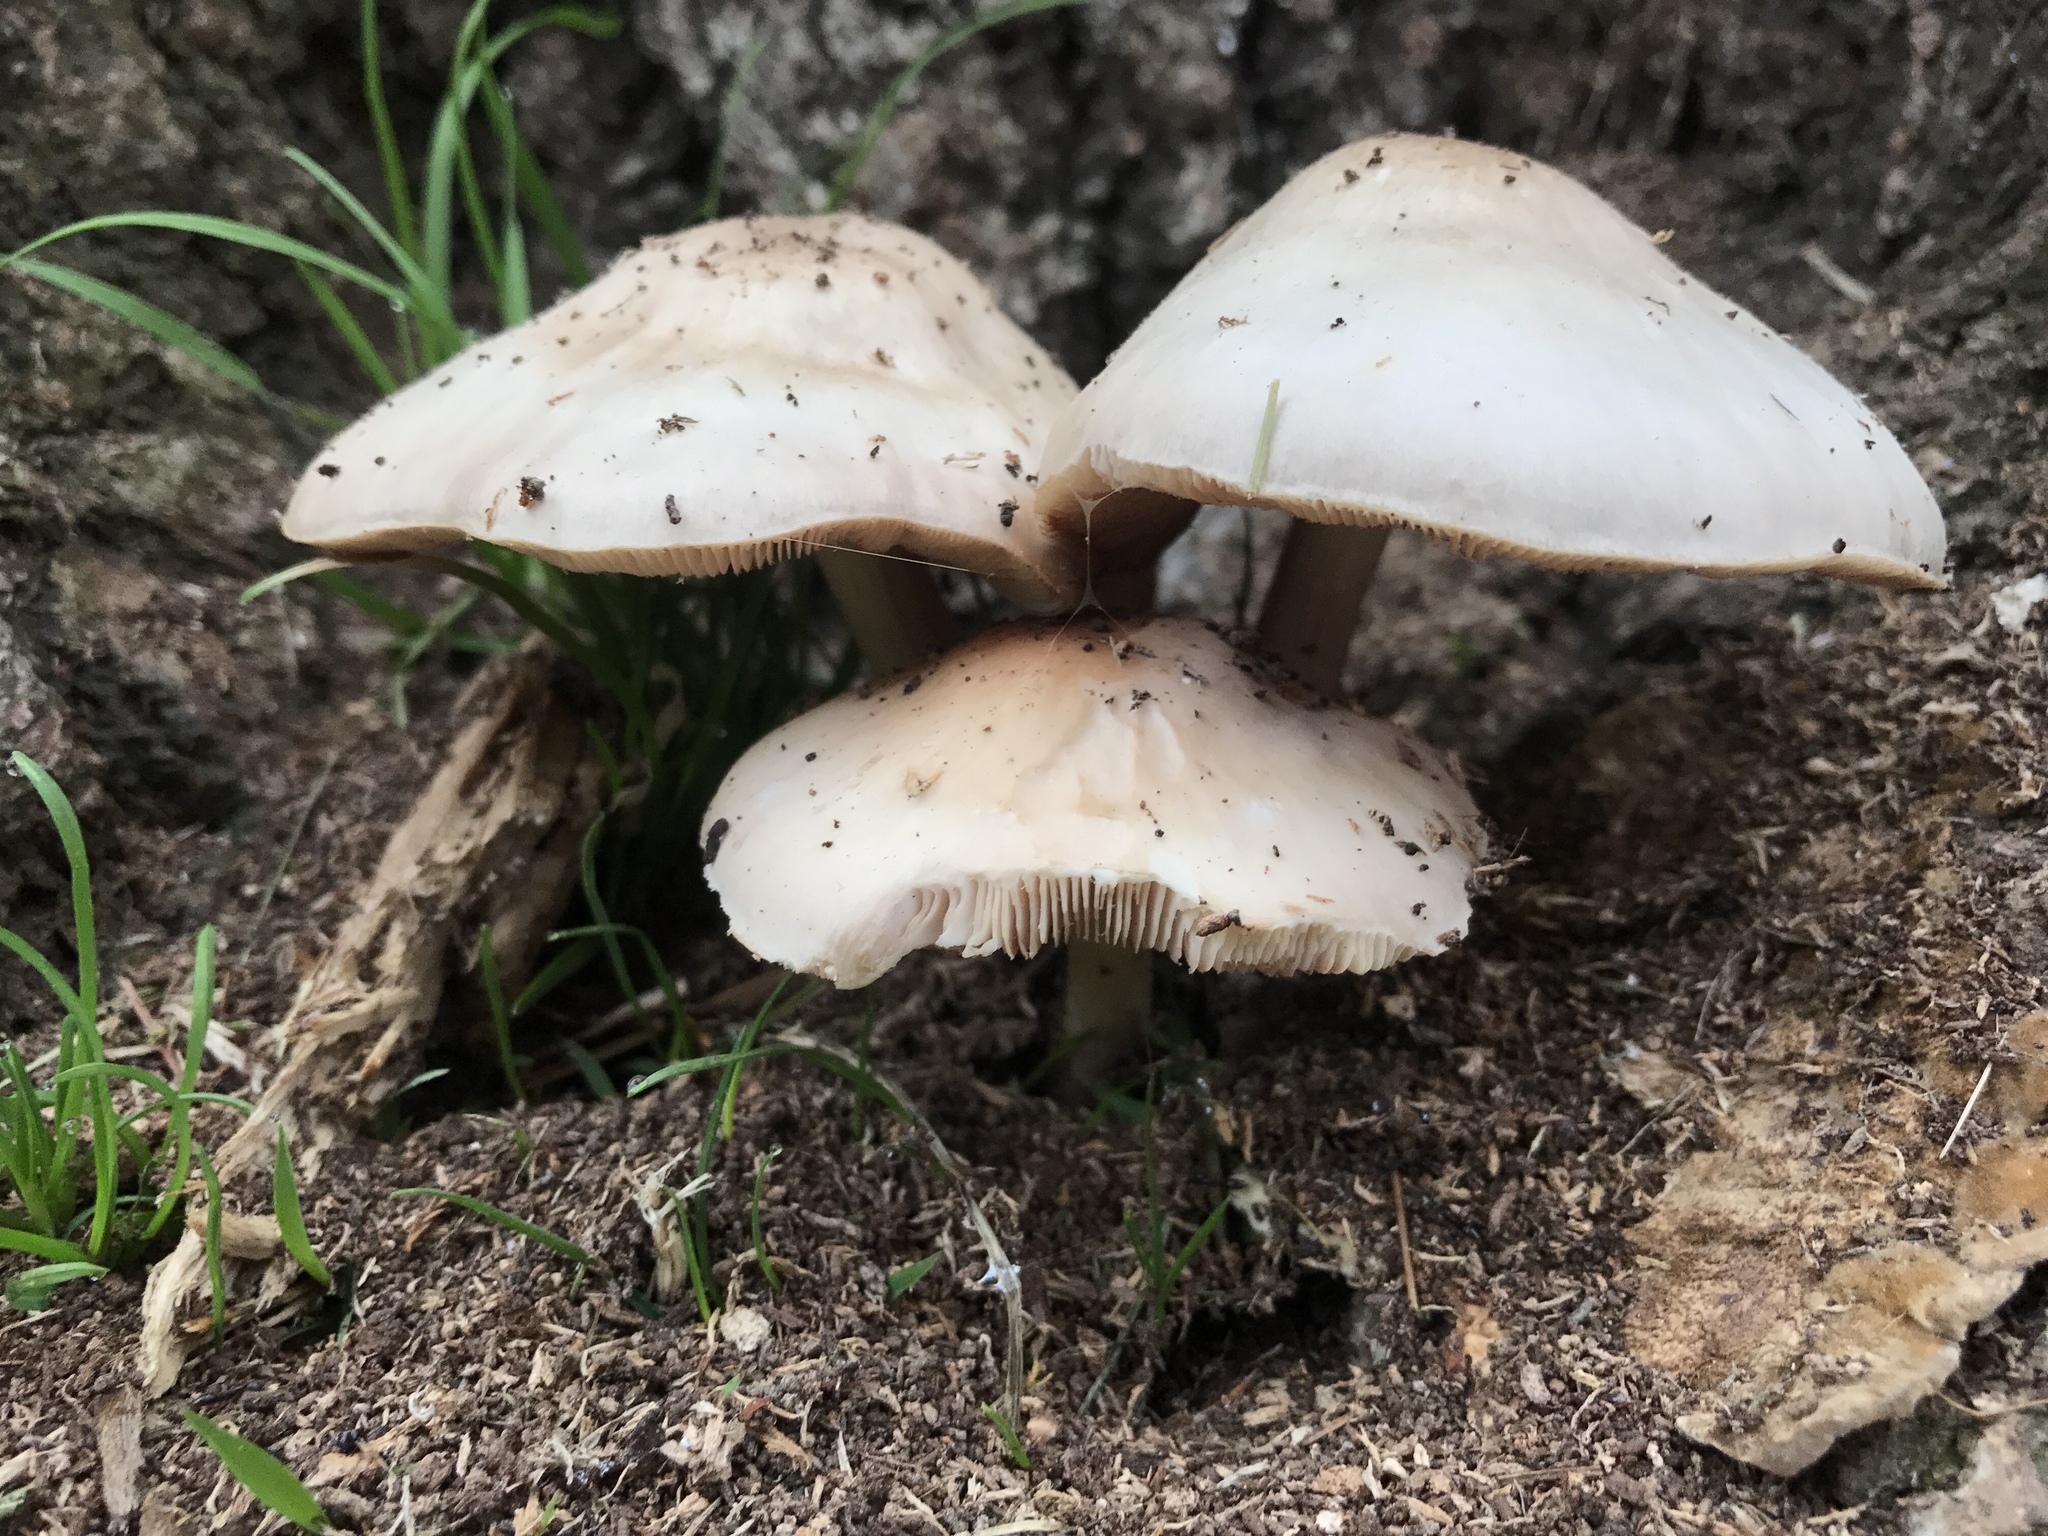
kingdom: Fungi
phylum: Basidiomycota
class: Agaricomycetes
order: Agaricales
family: Pluteaceae
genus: Pluteus
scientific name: Pluteus cervinus
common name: Deer shield
